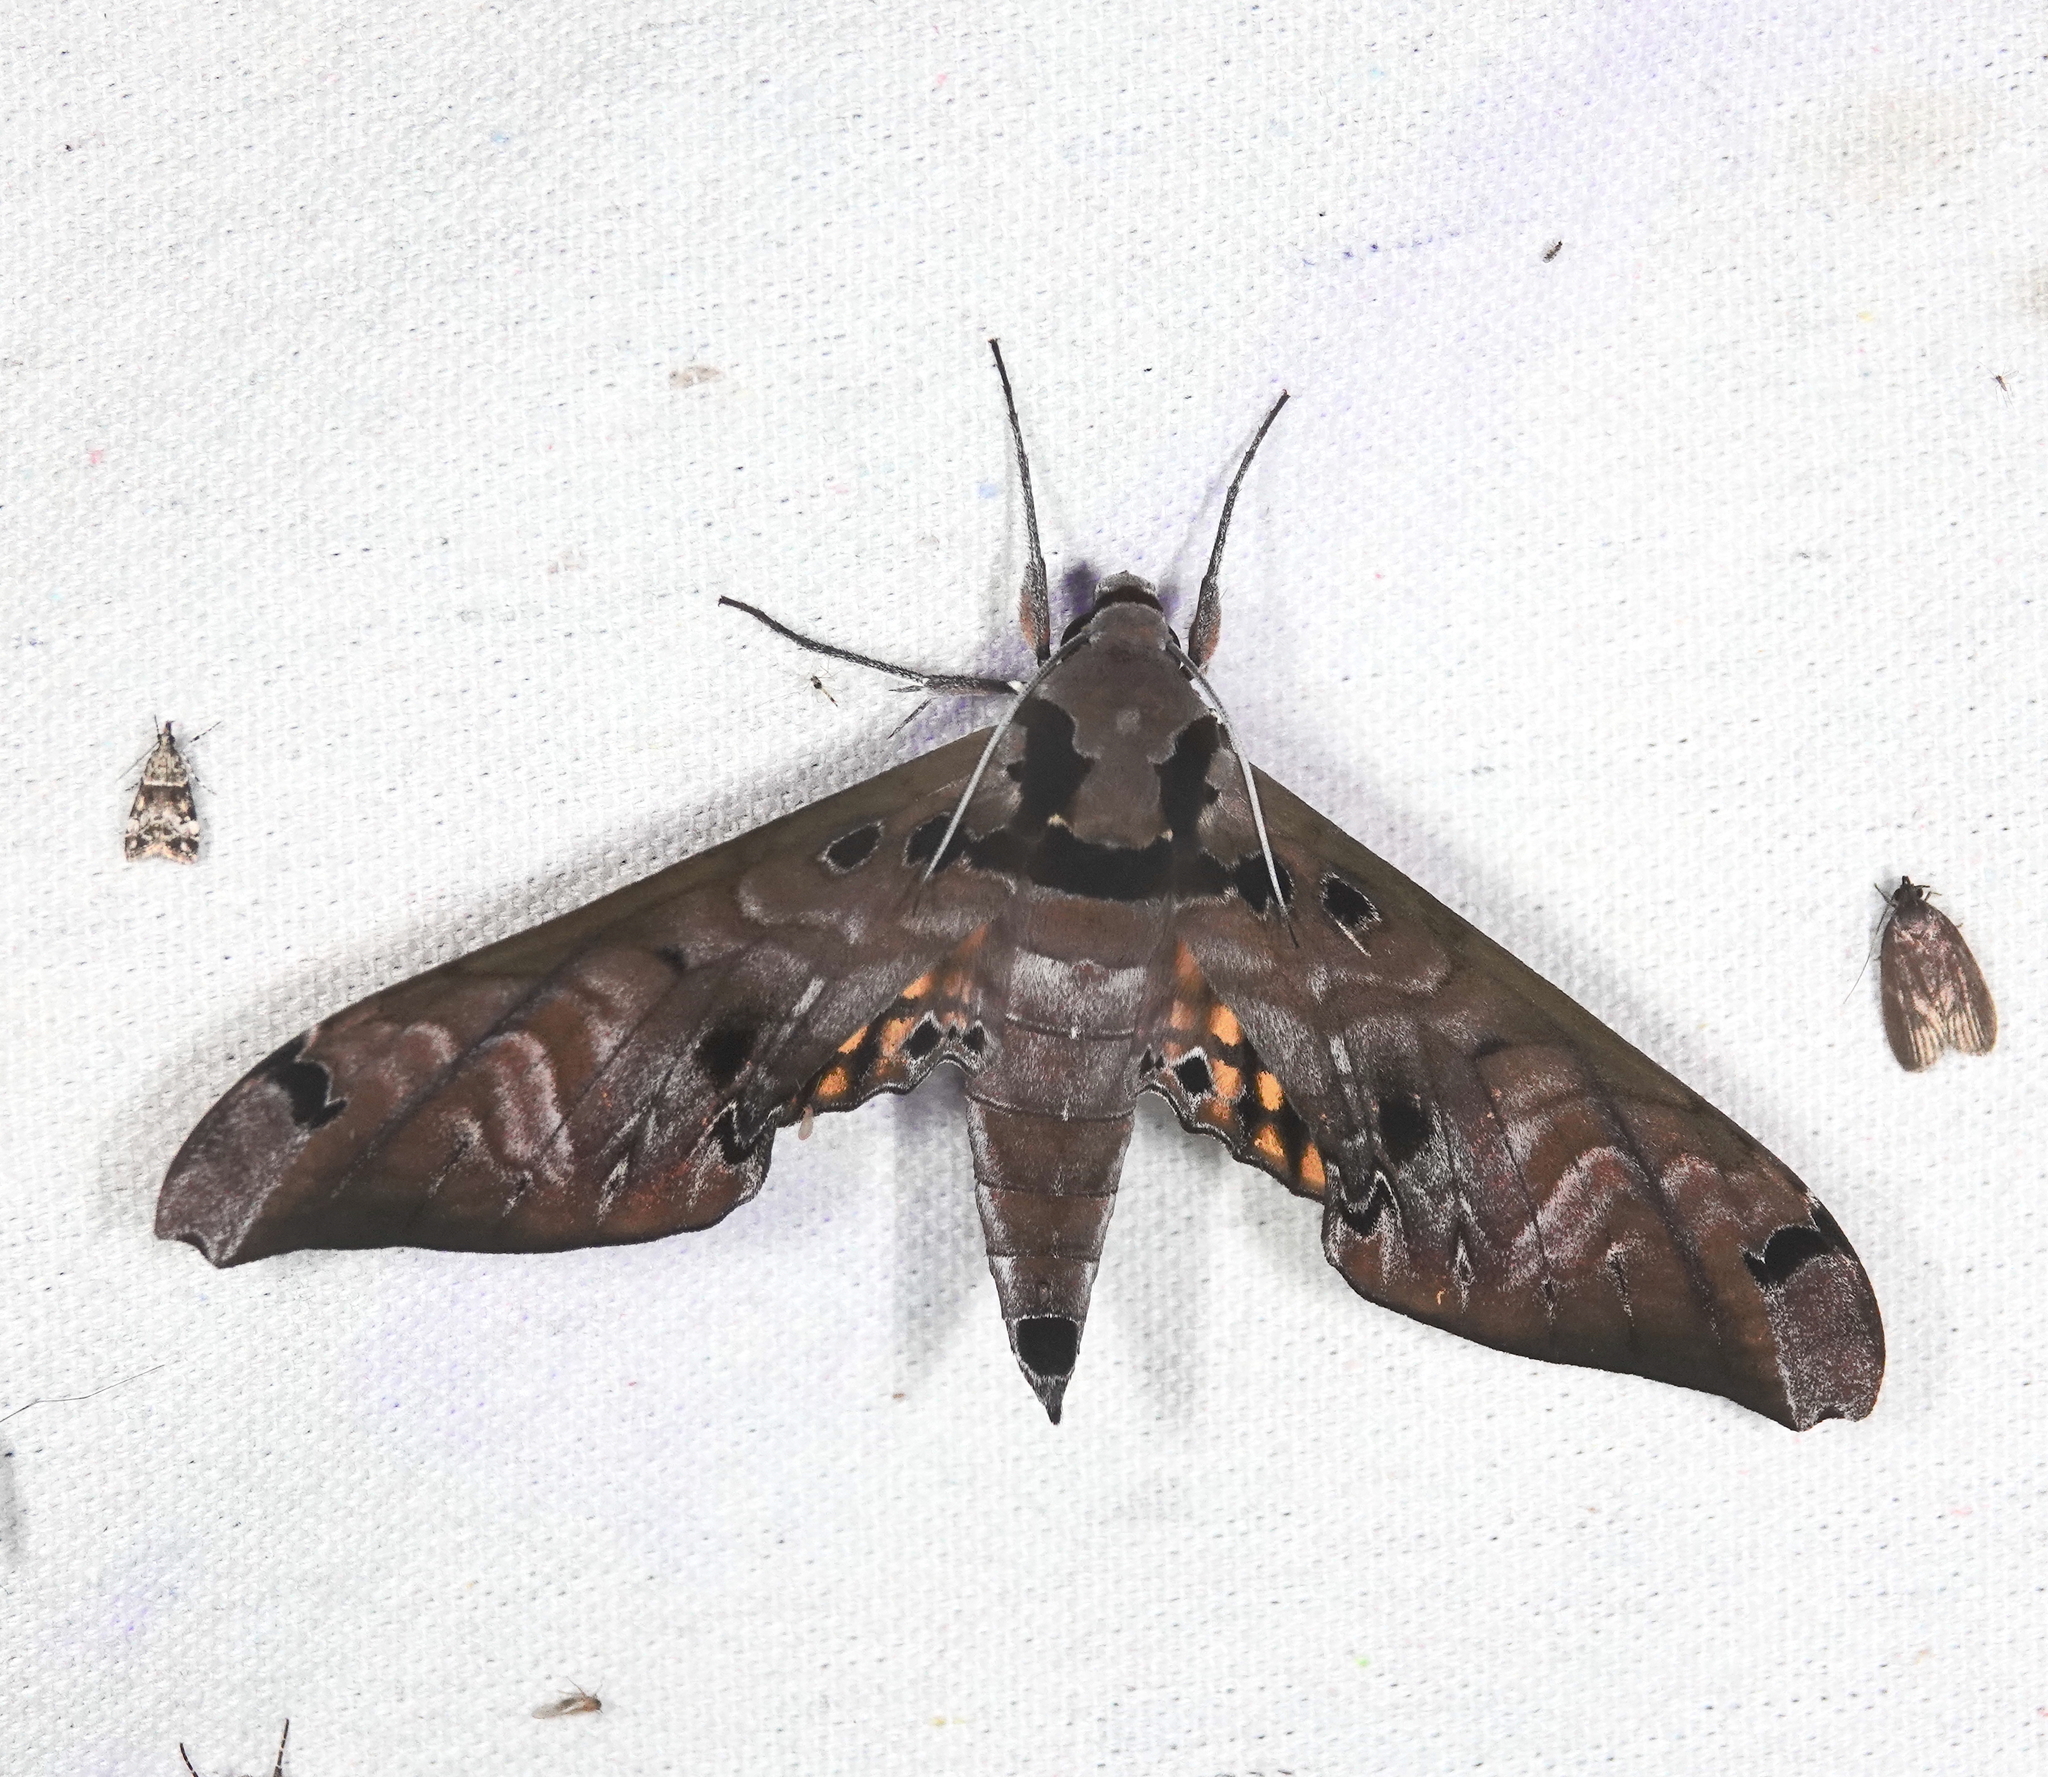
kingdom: Animalia
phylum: Arthropoda
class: Insecta
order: Lepidoptera
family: Sphingidae
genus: Adhemarius
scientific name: Adhemarius tigrina
